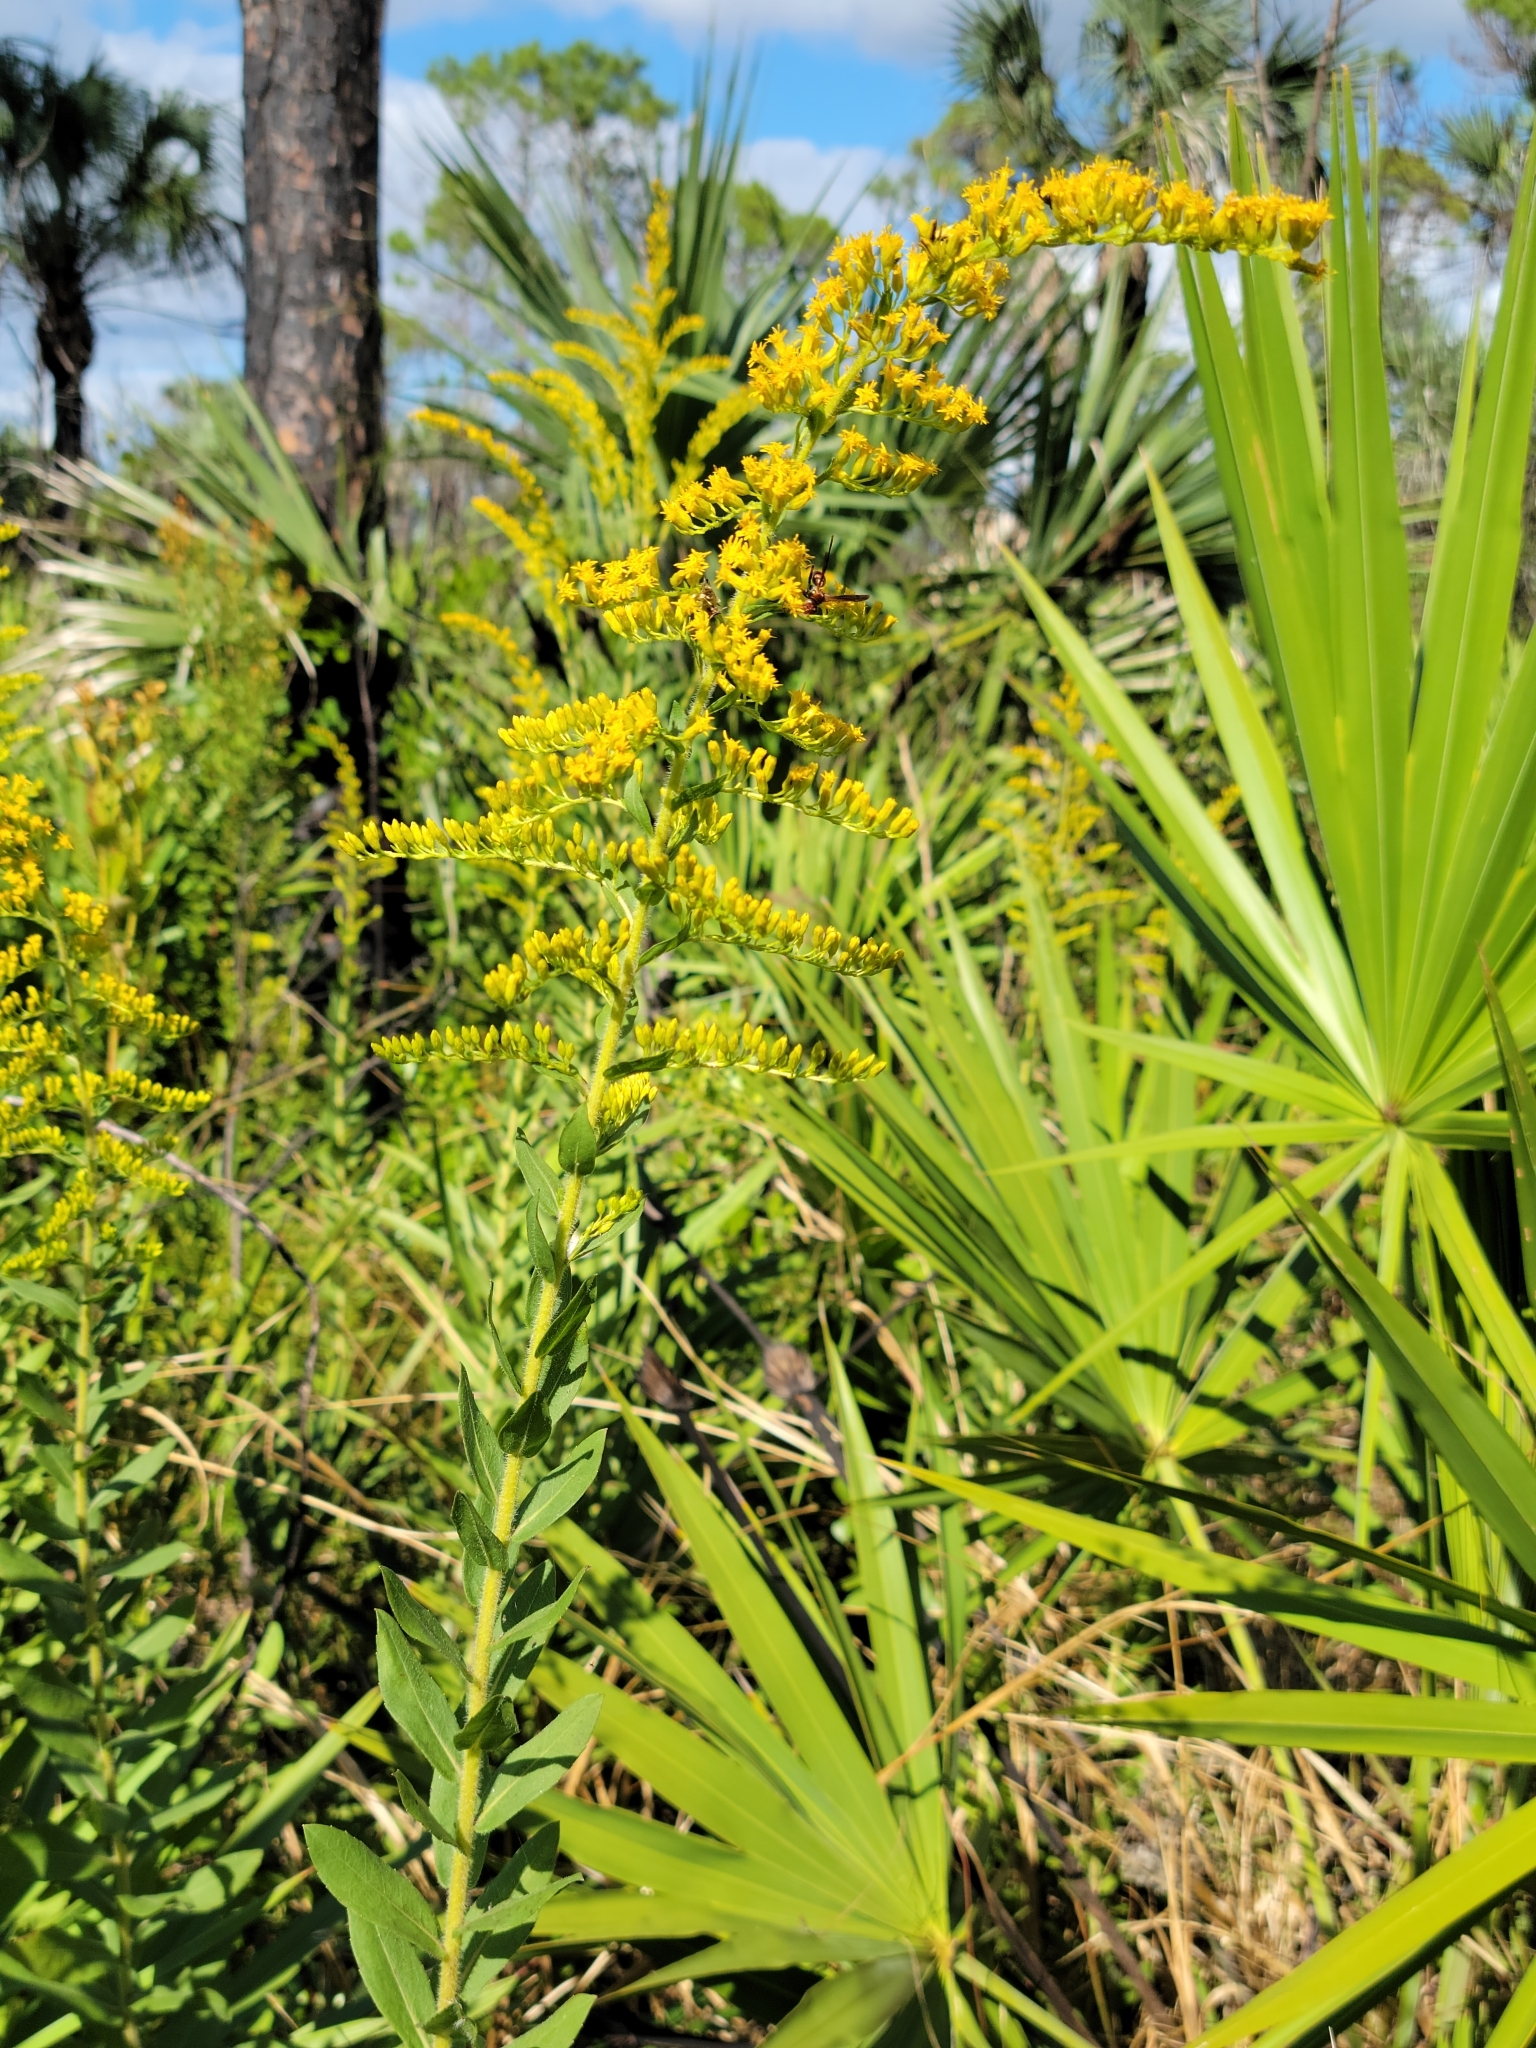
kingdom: Plantae
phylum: Tracheophyta
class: Magnoliopsida
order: Asterales
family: Asteraceae
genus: Solidago
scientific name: Solidago fistulosa
